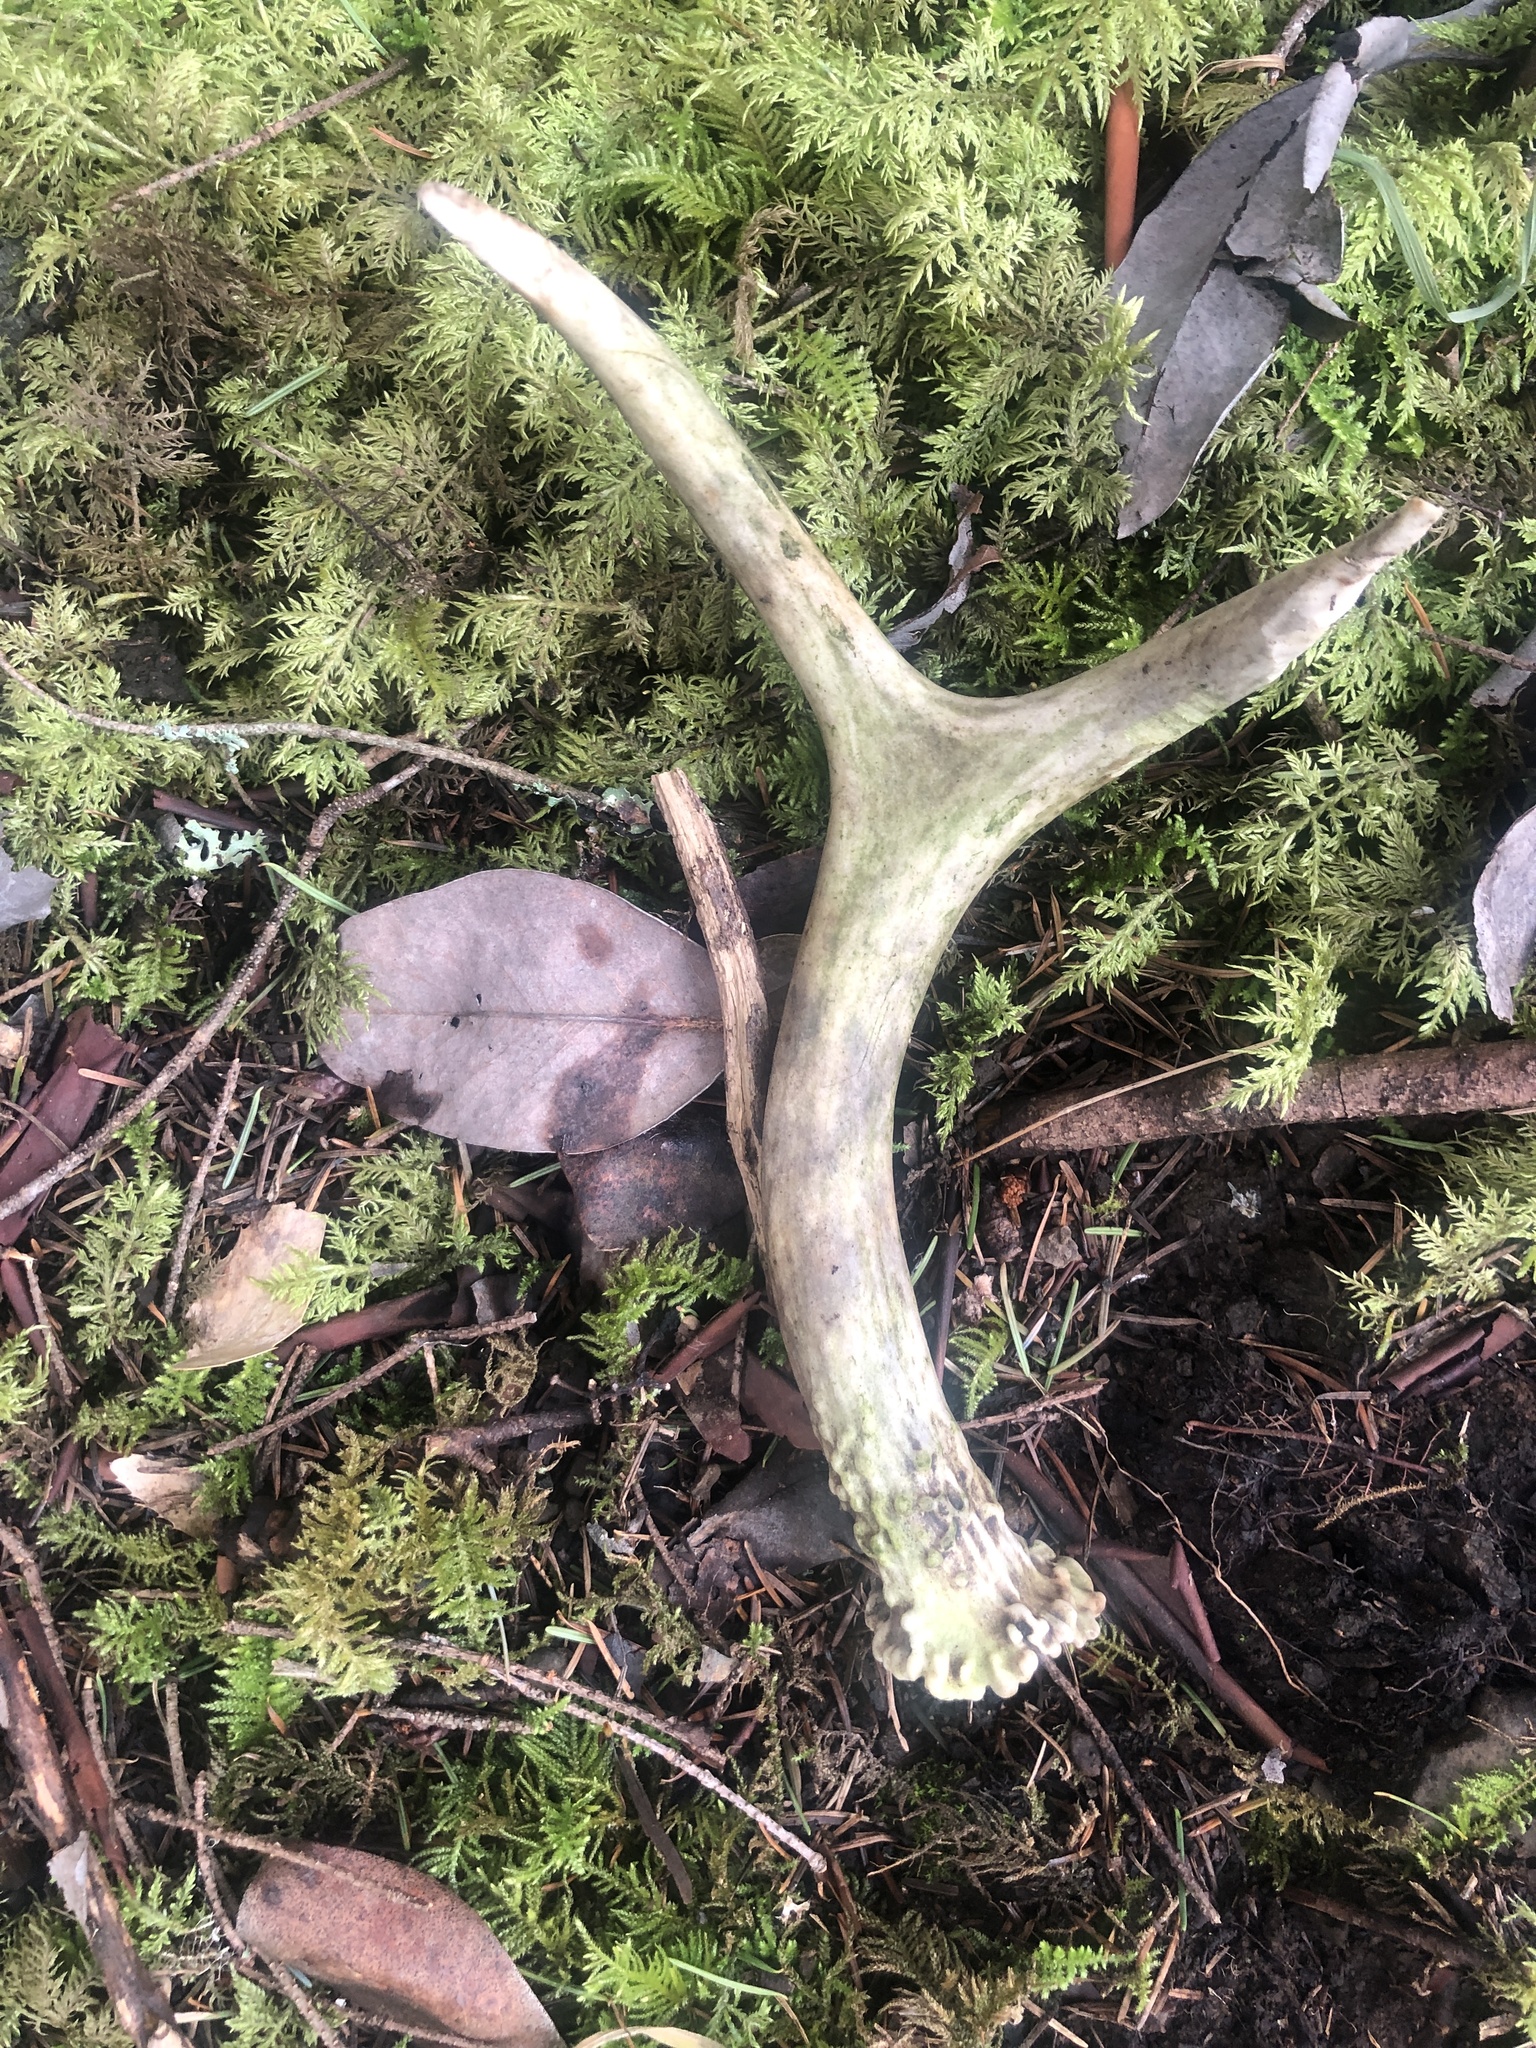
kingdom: Animalia
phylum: Chordata
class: Mammalia
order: Artiodactyla
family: Cervidae
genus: Odocoileus
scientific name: Odocoileus hemionus
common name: Mule deer
